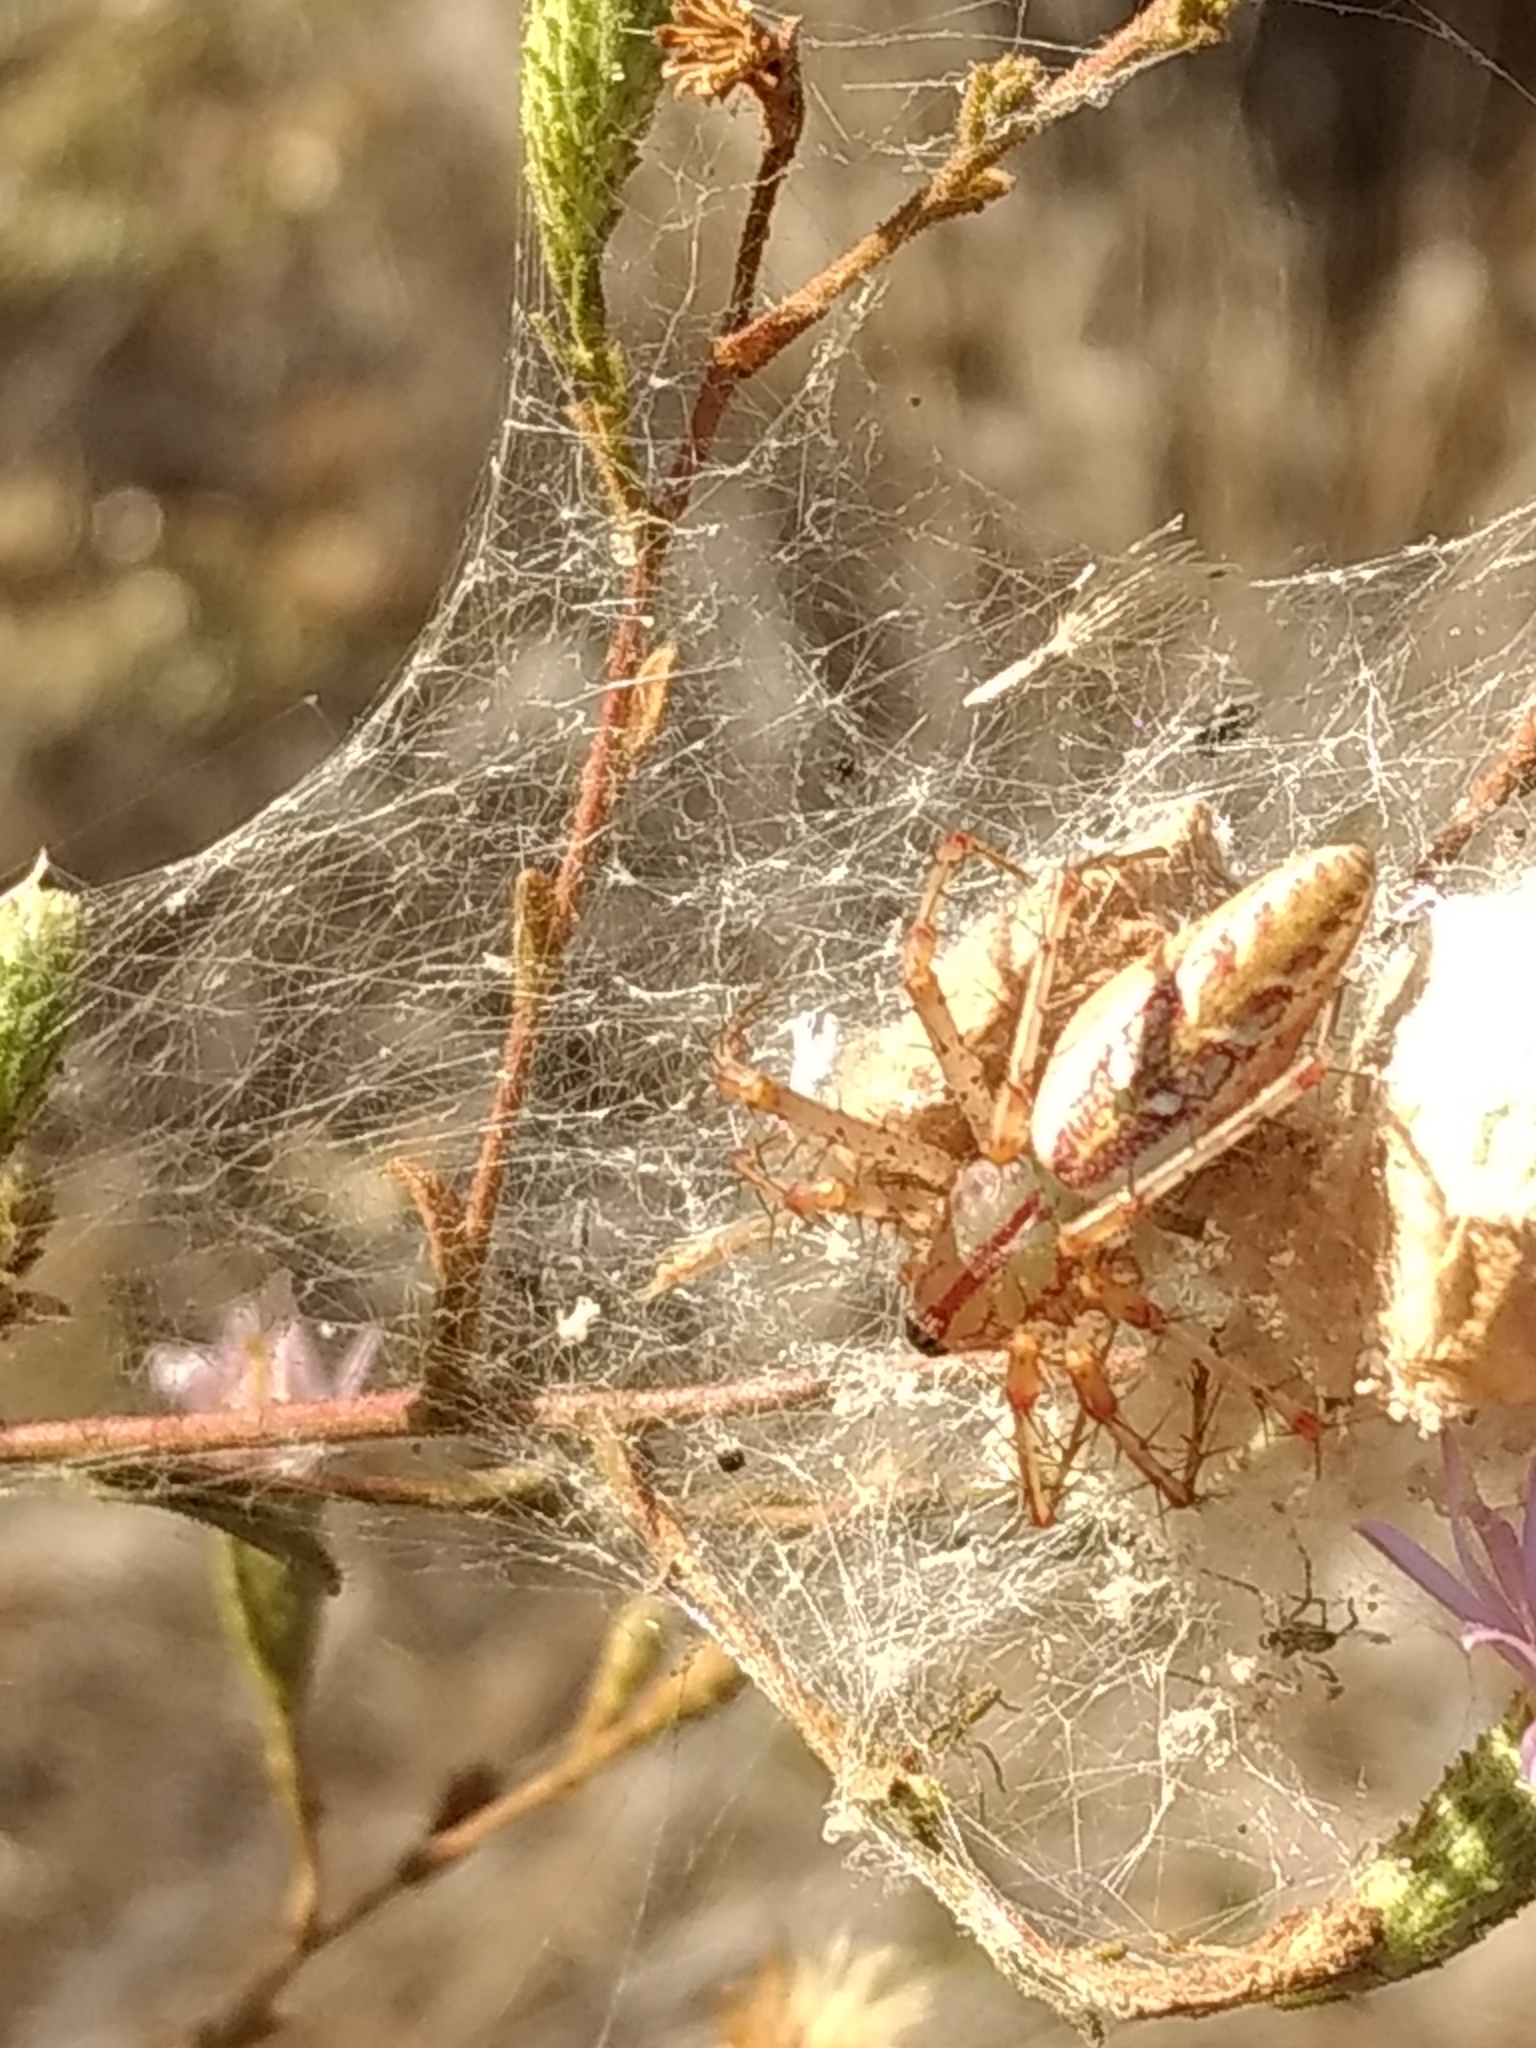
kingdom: Animalia
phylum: Arthropoda
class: Arachnida
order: Araneae
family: Oxyopidae
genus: Peucetia
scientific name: Peucetia viridans
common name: Lynx spiders
